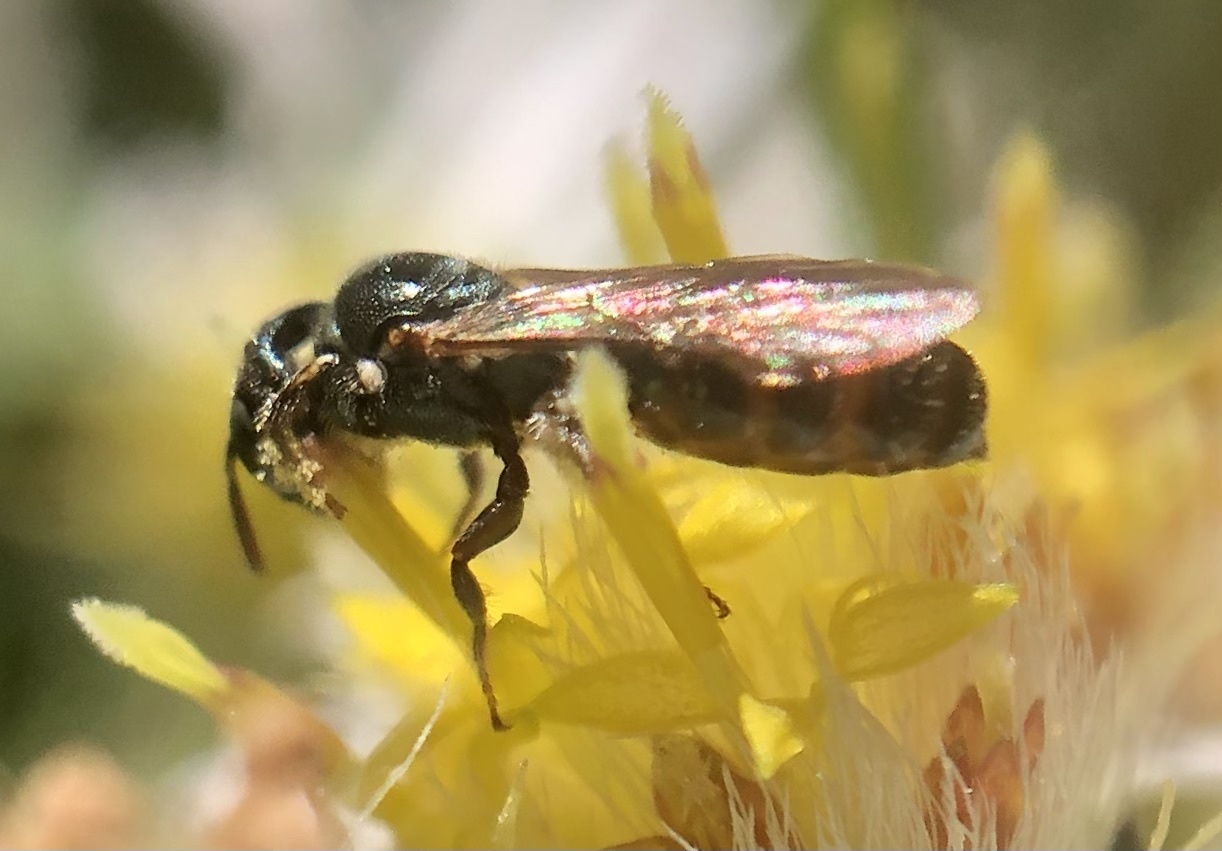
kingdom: Animalia
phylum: Arthropoda
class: Insecta
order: Hymenoptera
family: Apidae
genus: Ceratina
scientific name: Ceratina strenua
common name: Nimble carpenter bee
